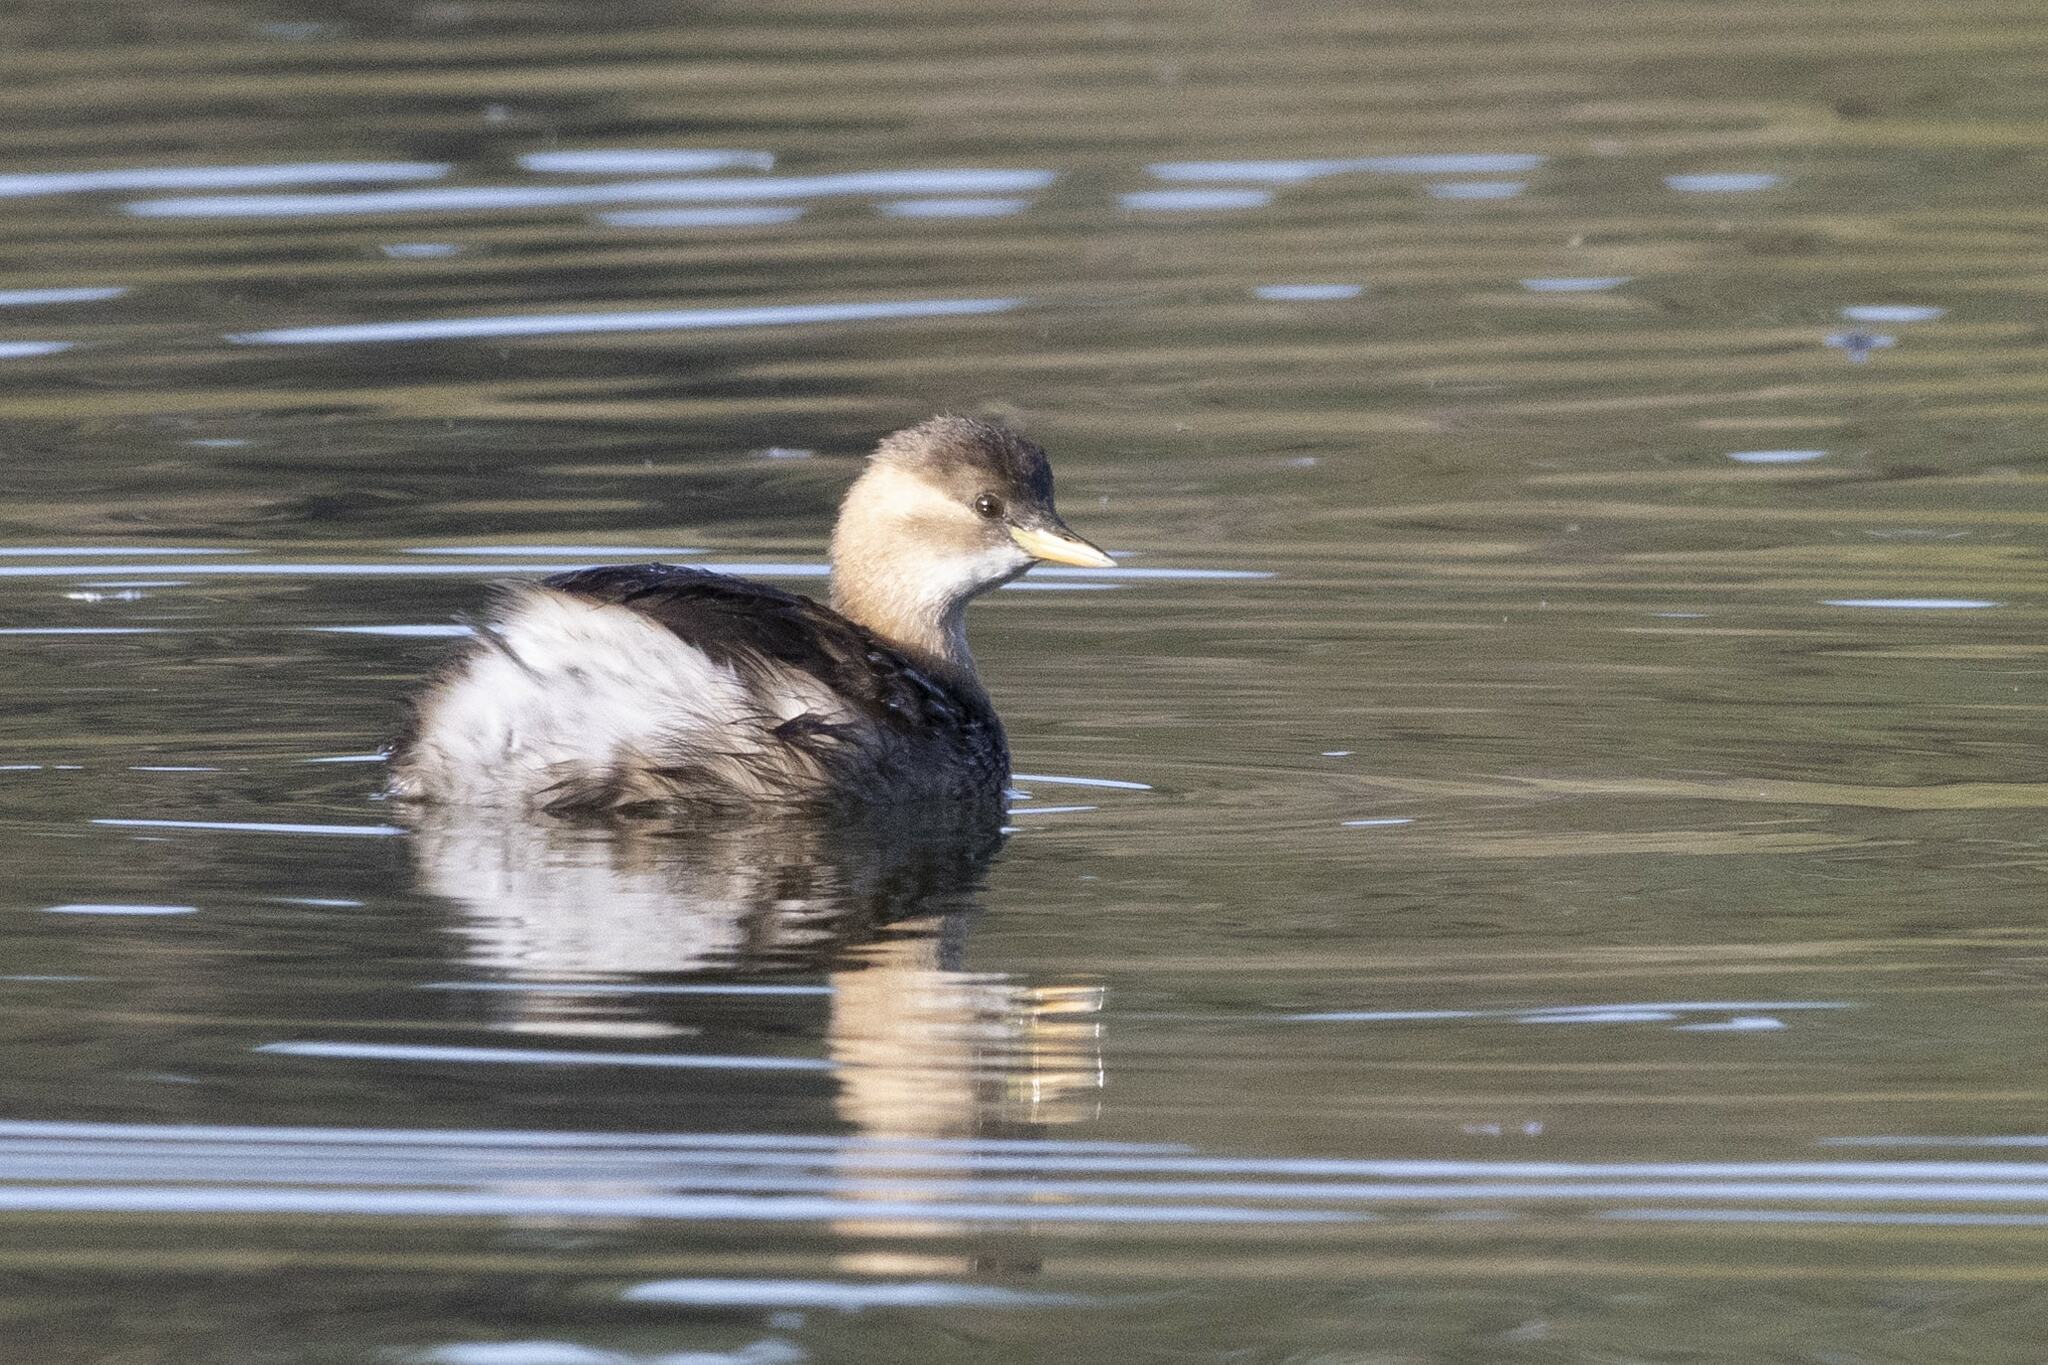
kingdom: Animalia
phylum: Chordata
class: Aves
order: Podicipediformes
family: Podicipedidae
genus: Tachybaptus
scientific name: Tachybaptus ruficollis
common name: Little grebe
